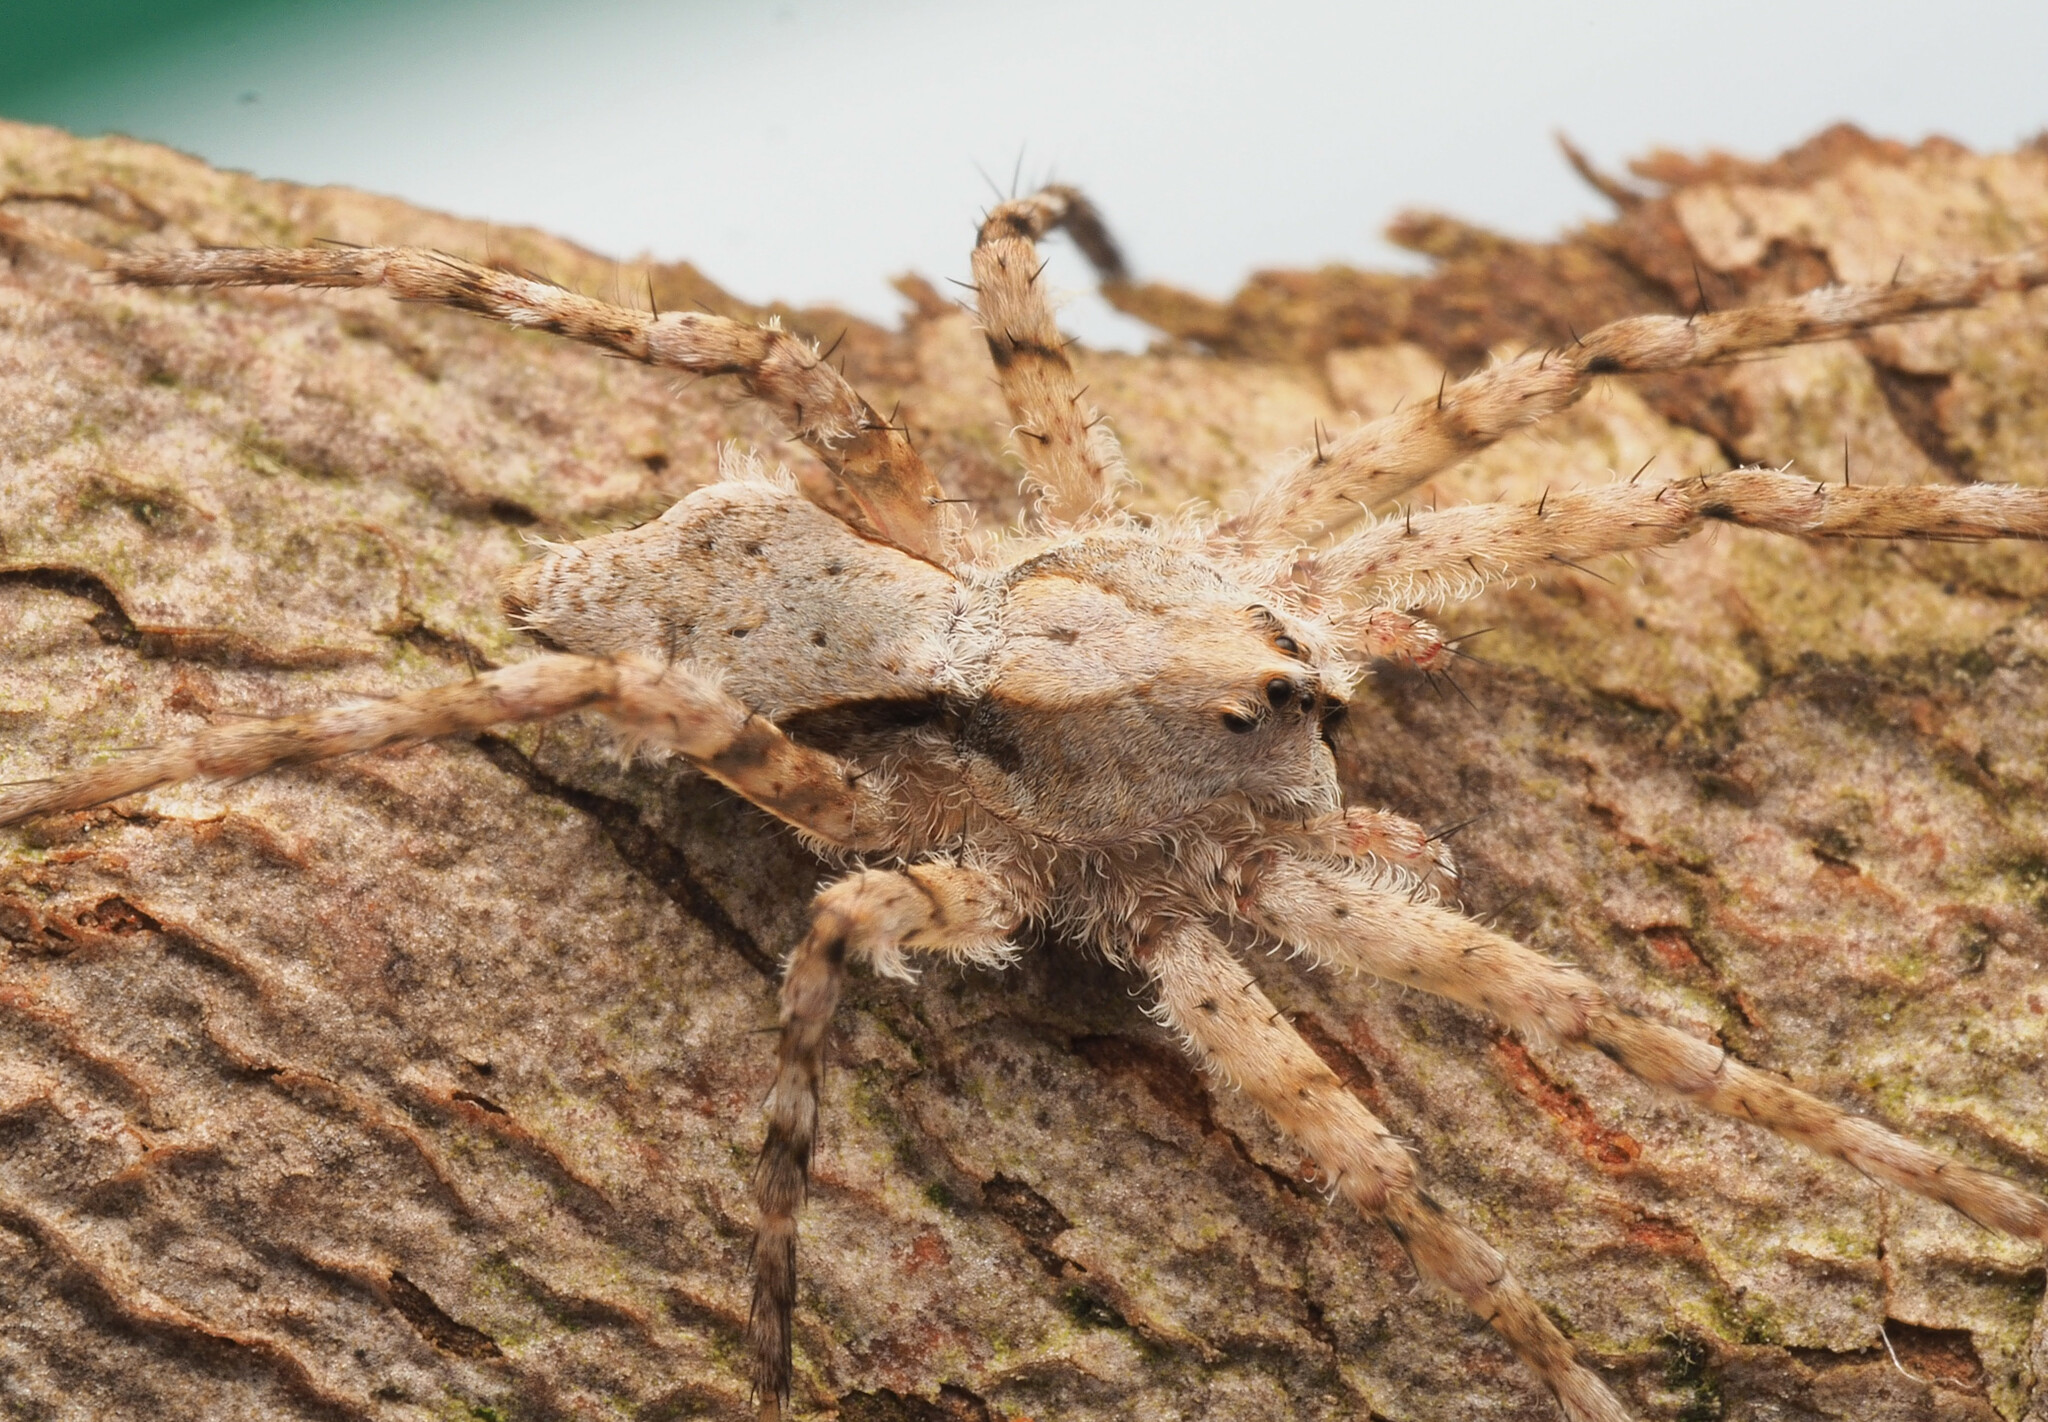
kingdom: Animalia
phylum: Arthropoda
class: Arachnida
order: Araneae
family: Pisauridae
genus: Ornodolomedes
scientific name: Ornodolomedes
